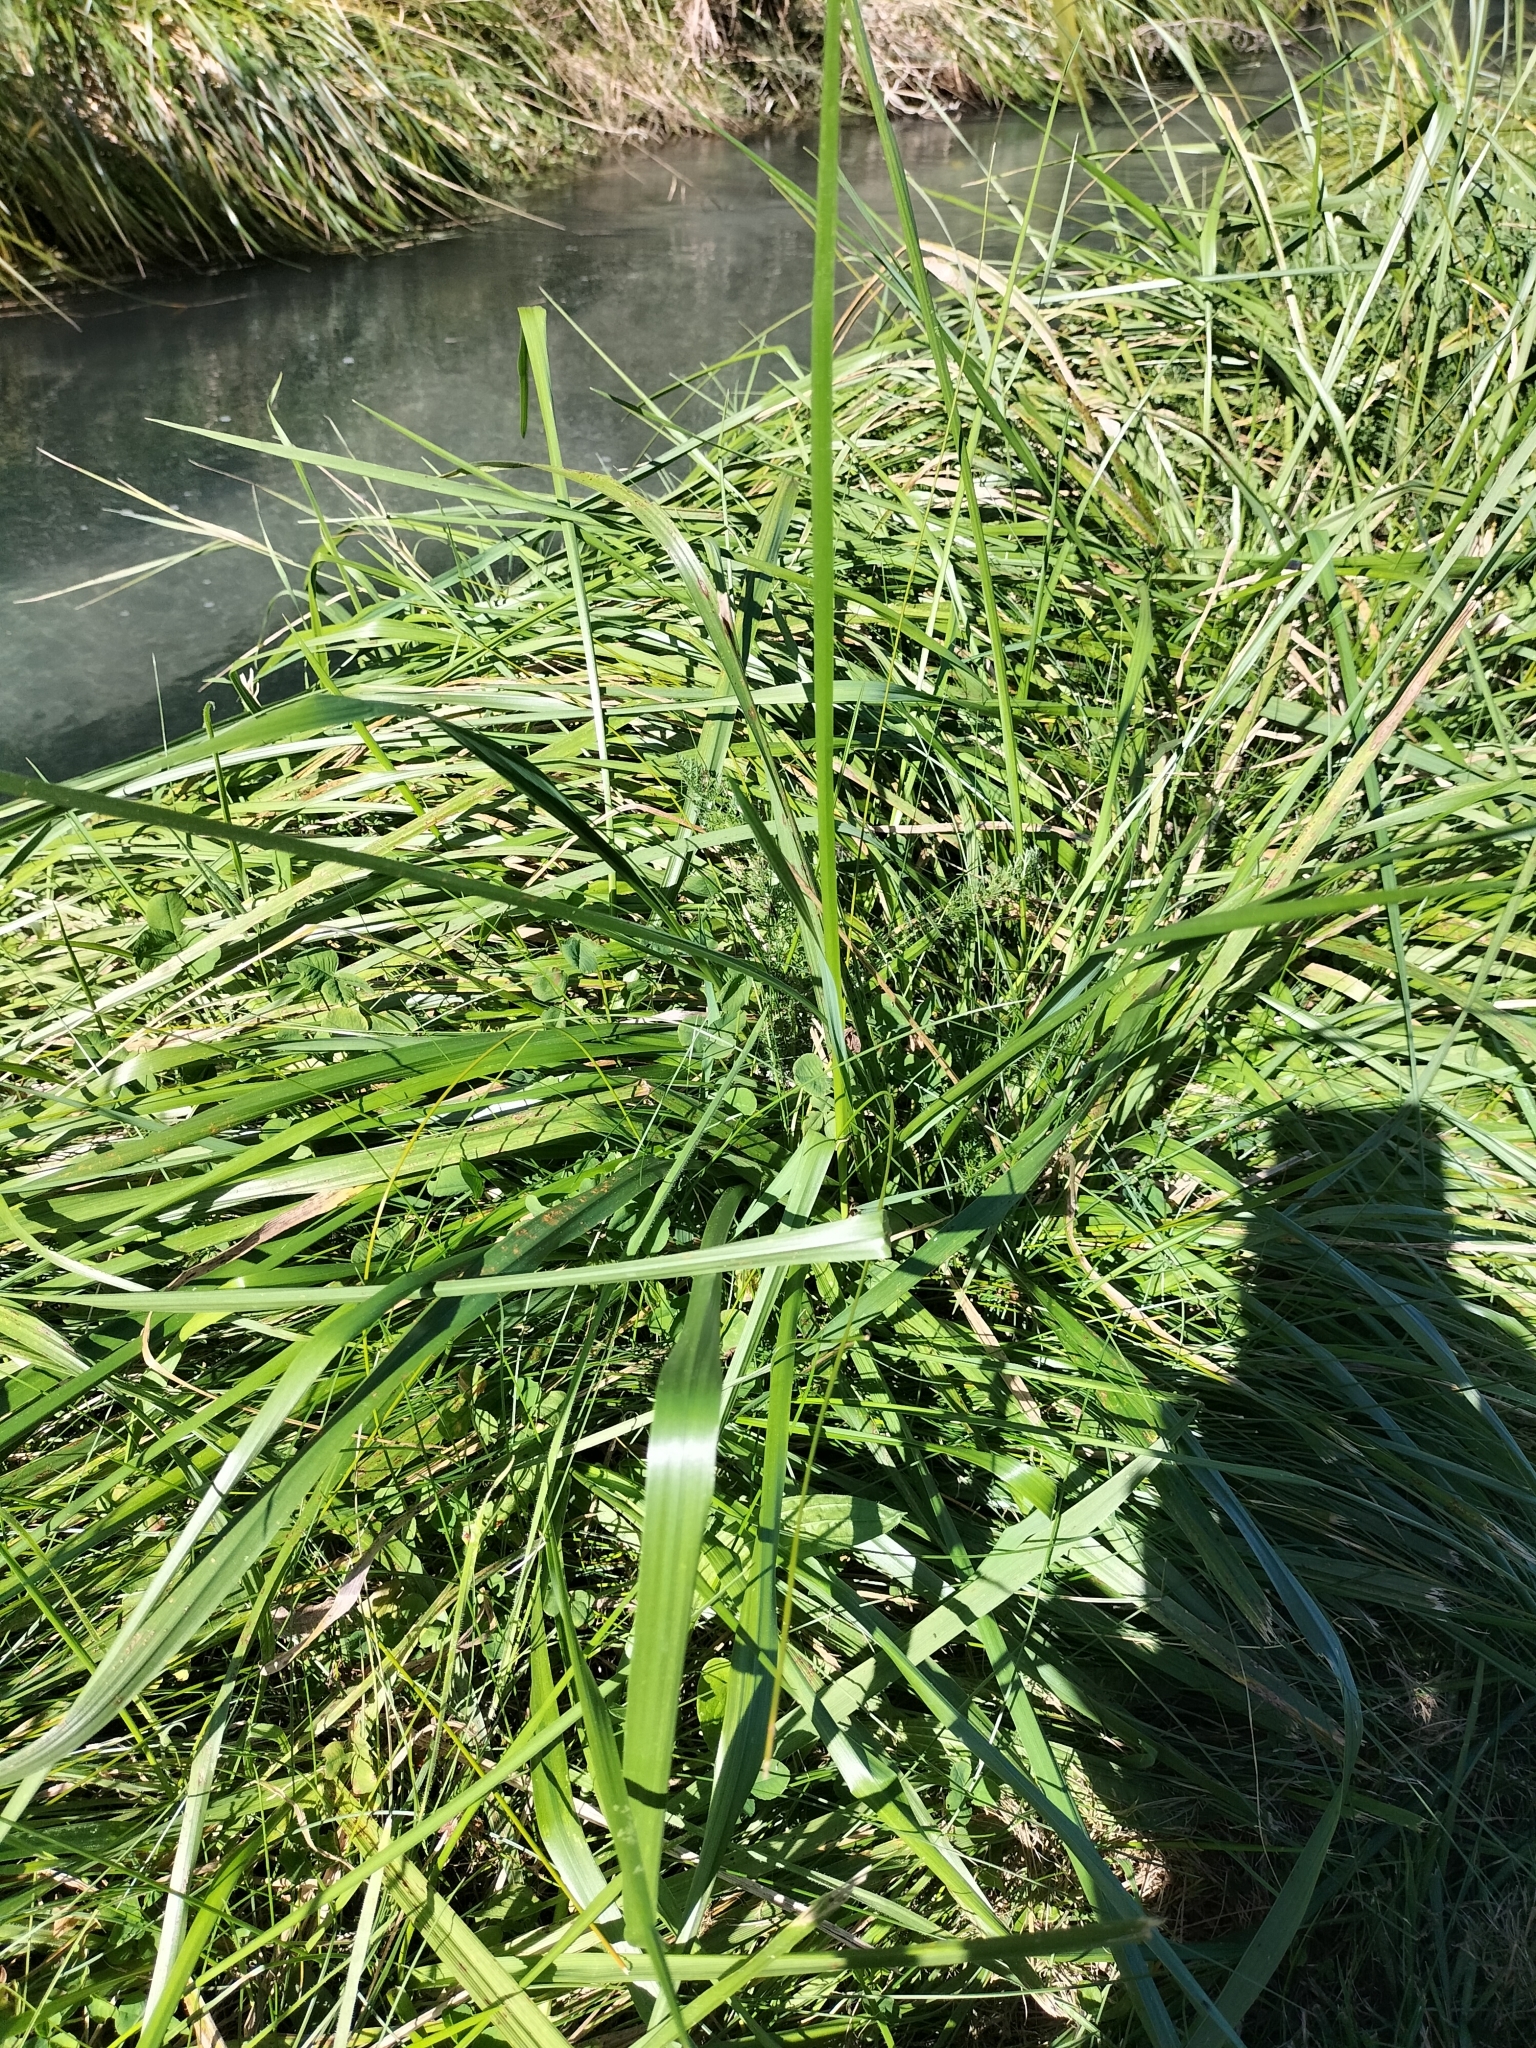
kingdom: Plantae
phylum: Tracheophyta
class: Liliopsida
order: Poales
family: Poaceae
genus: Lolium
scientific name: Lolium arundinaceum
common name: Reed fescue
